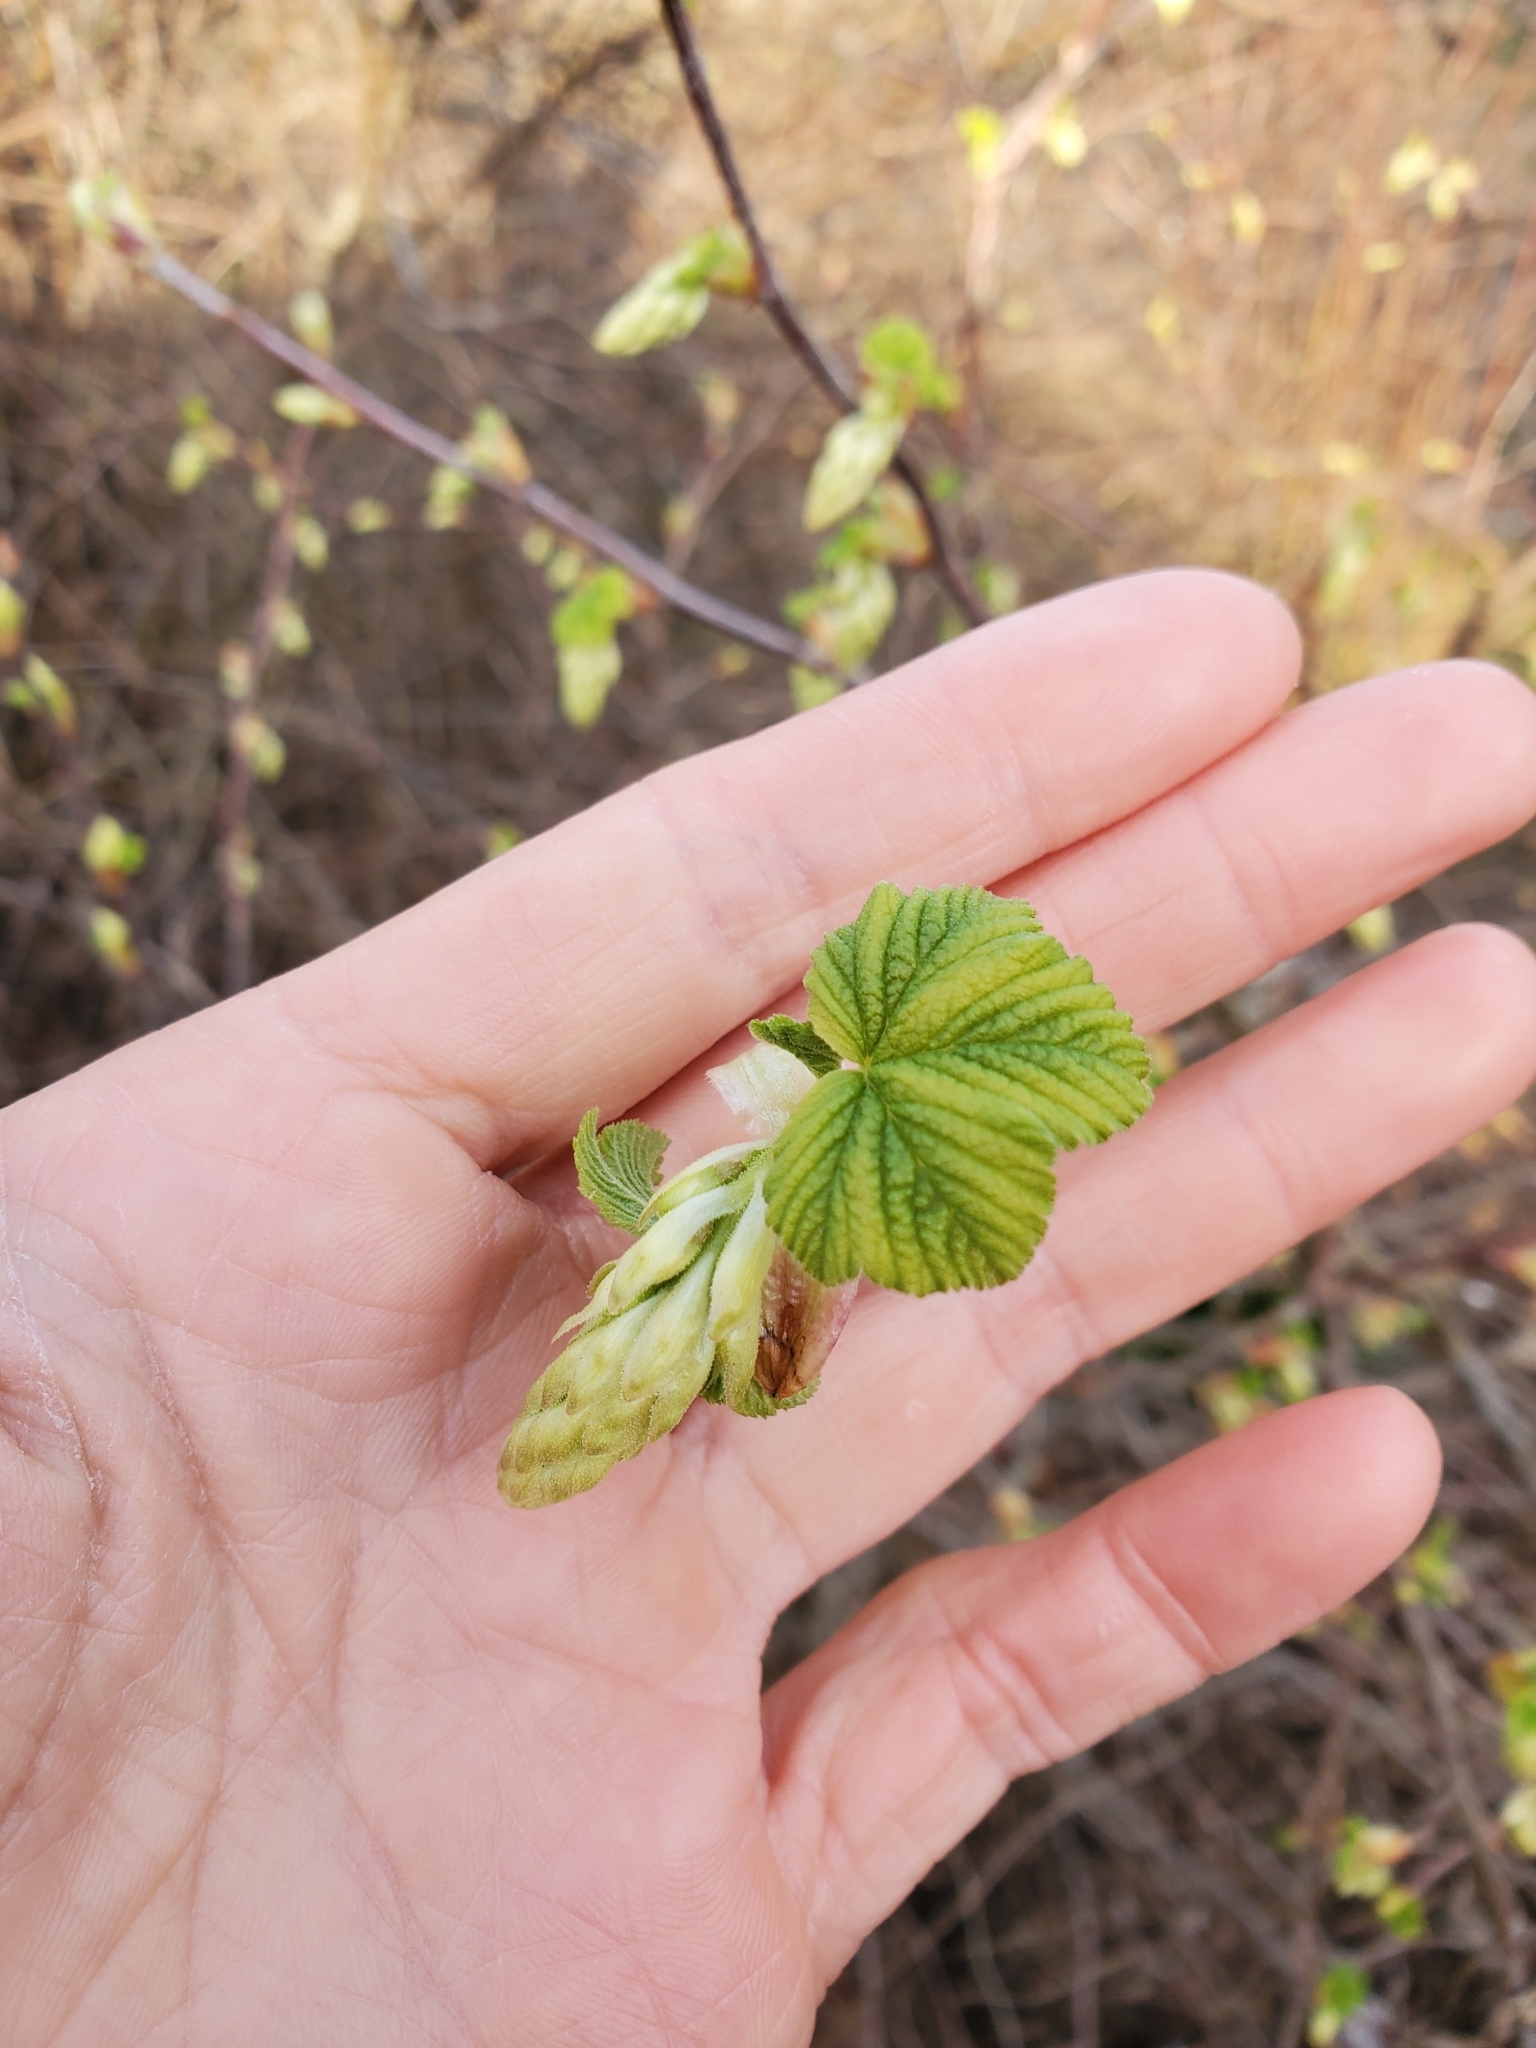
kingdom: Plantae
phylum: Tracheophyta
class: Magnoliopsida
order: Saxifragales
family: Grossulariaceae
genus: Ribes
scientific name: Ribes sanguineum
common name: Flowering currant
